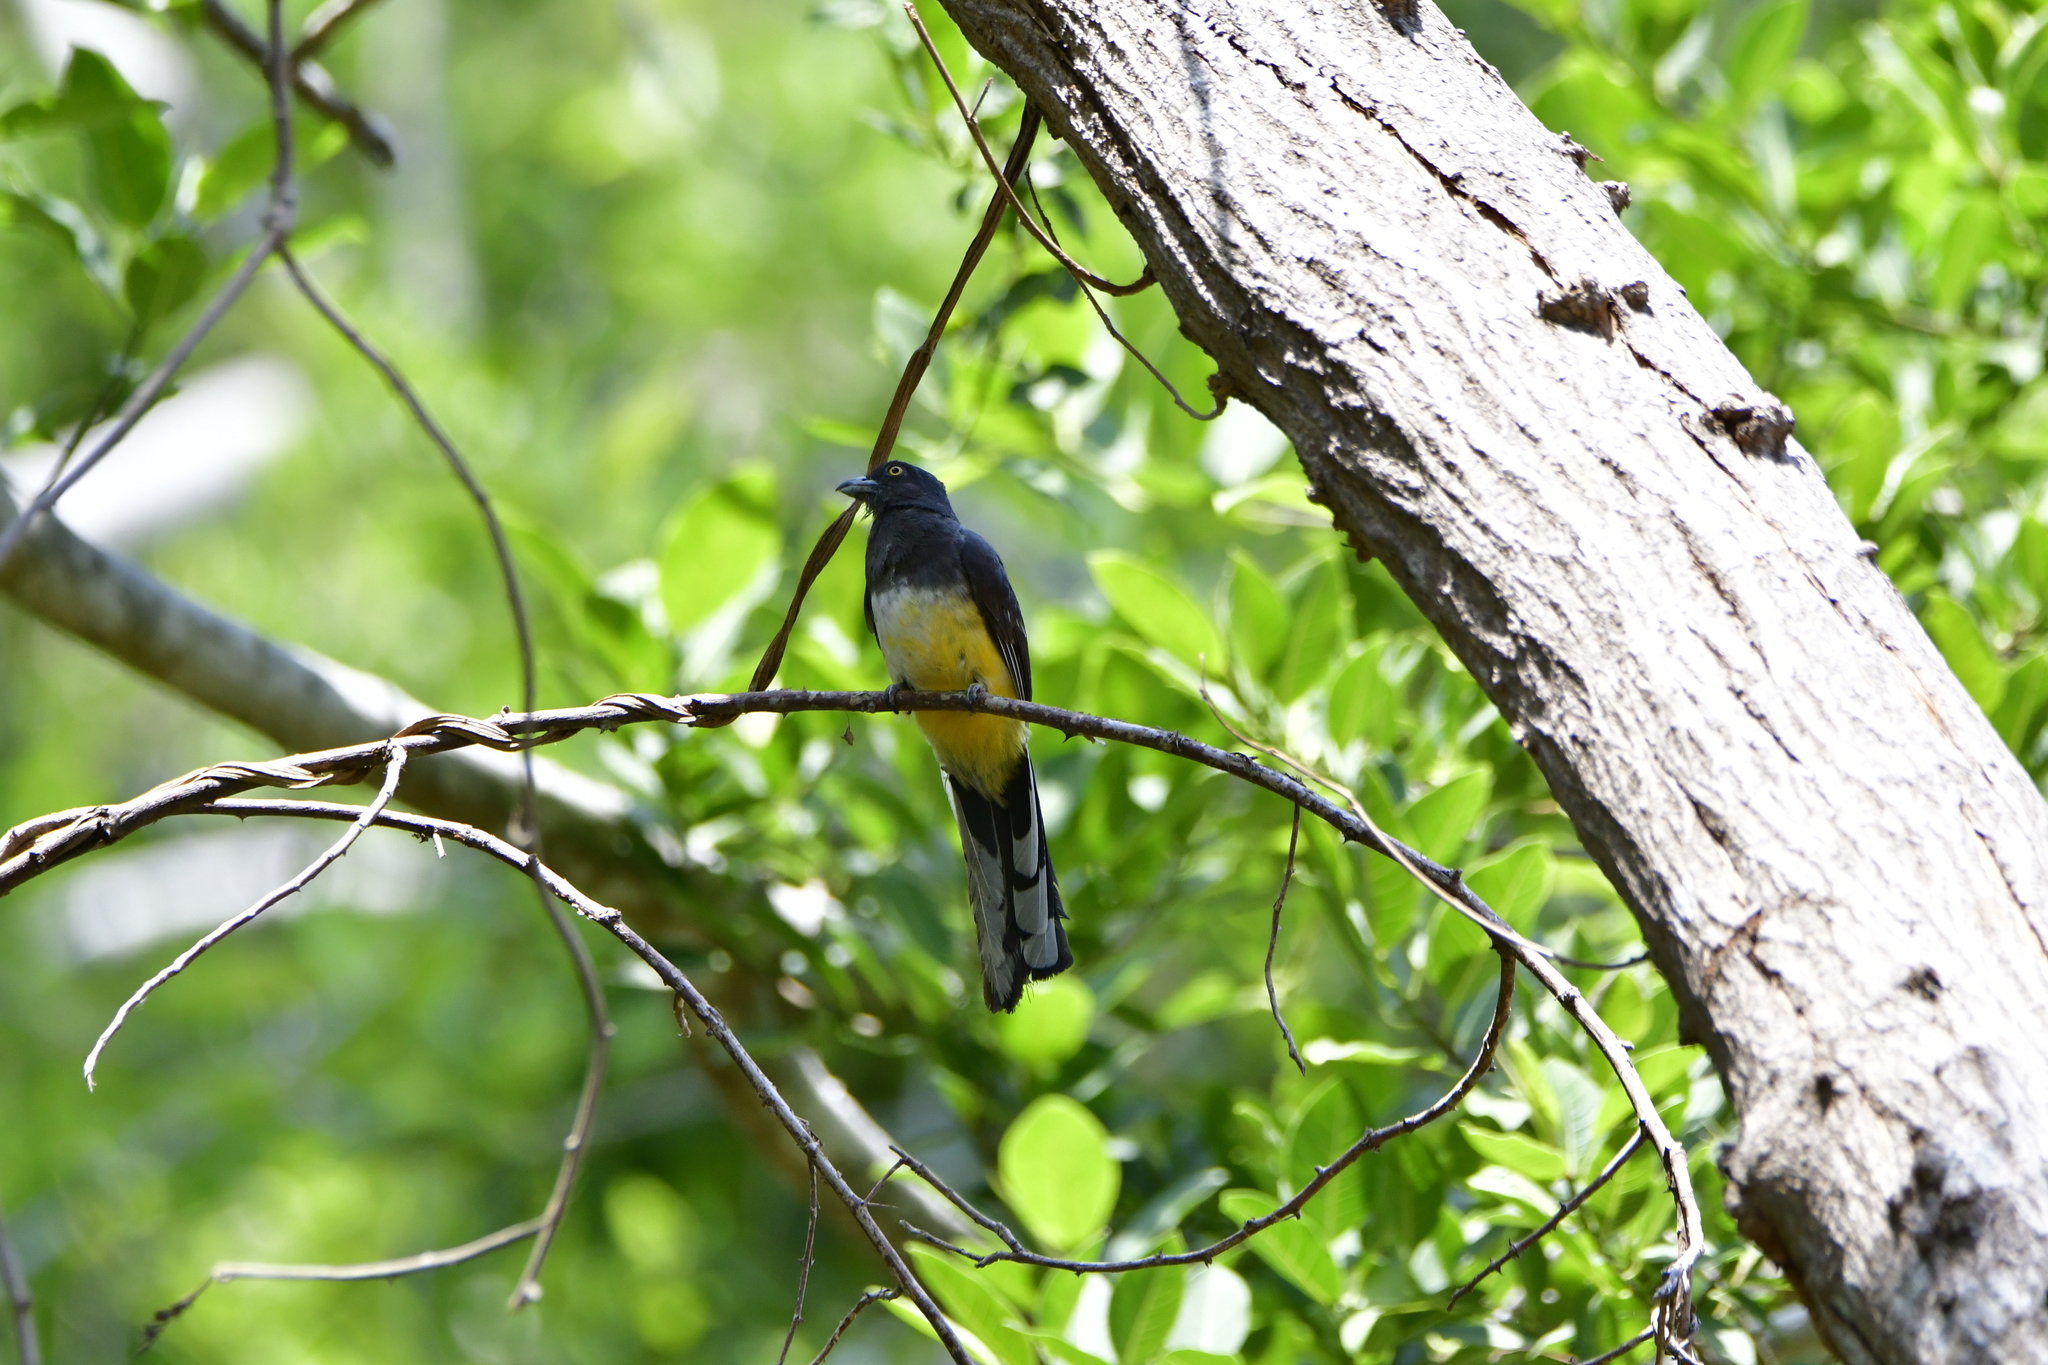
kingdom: Animalia
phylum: Chordata
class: Aves
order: Trogoniformes
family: Trogonidae
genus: Trogon
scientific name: Trogon citreolus
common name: Citreoline trogon
